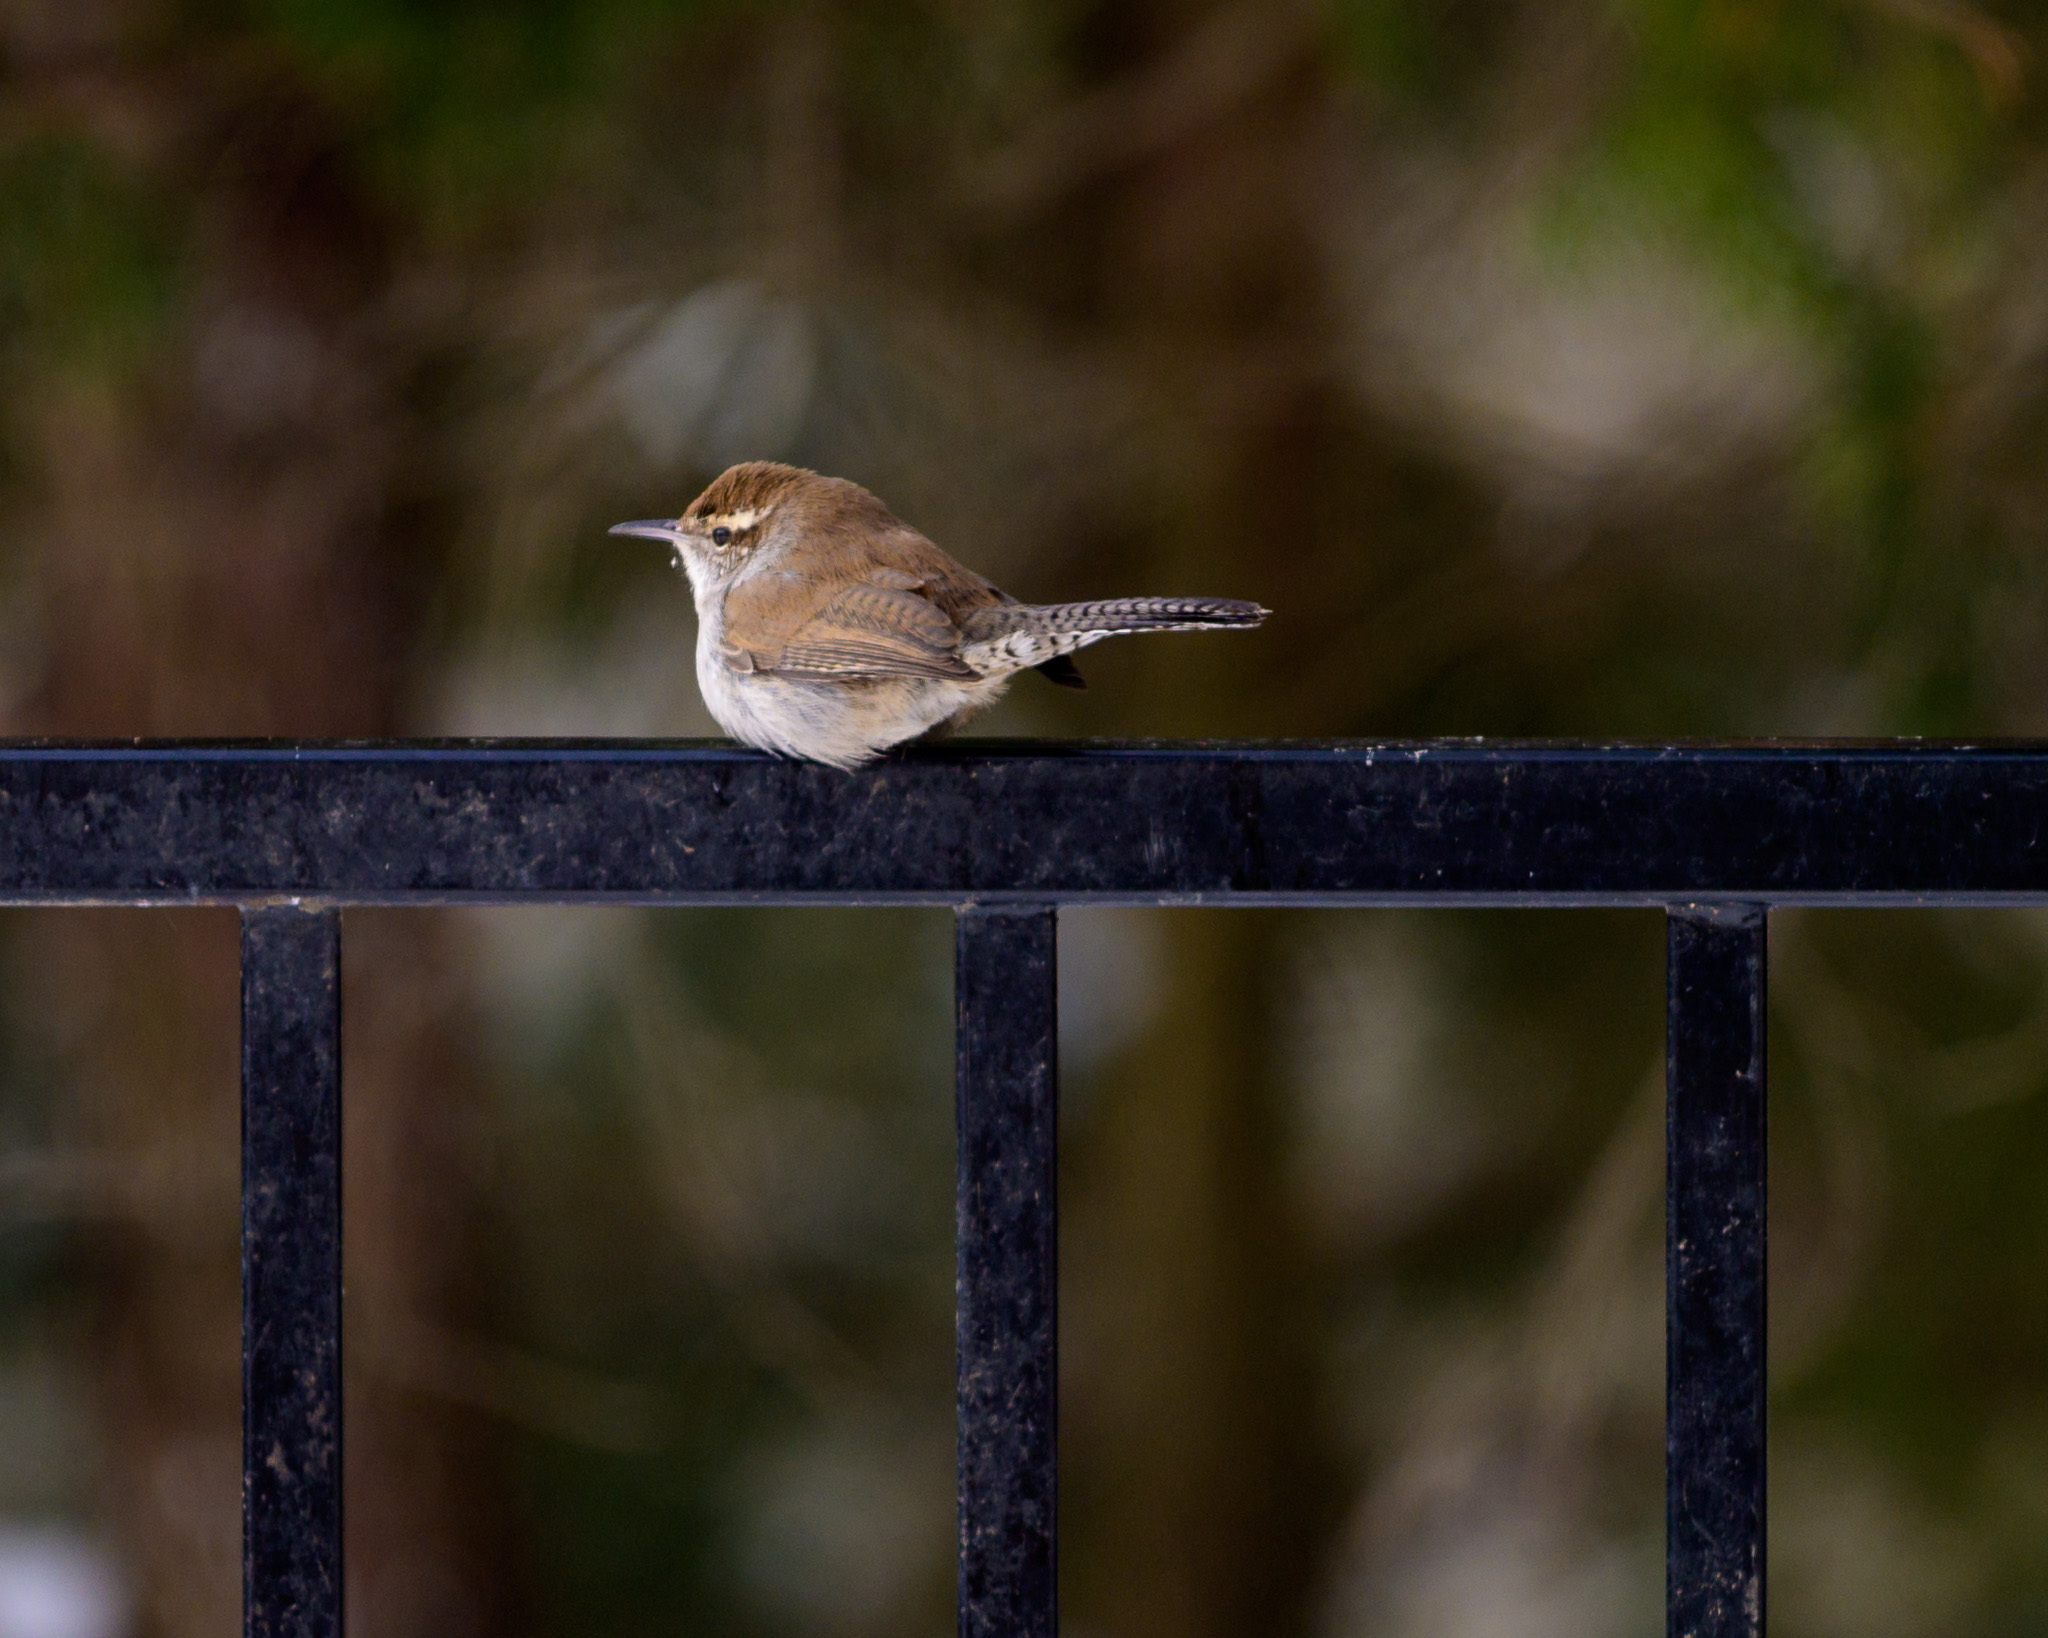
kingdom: Animalia
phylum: Chordata
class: Aves
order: Passeriformes
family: Troglodytidae
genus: Thryomanes
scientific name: Thryomanes bewickii
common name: Bewick's wren
